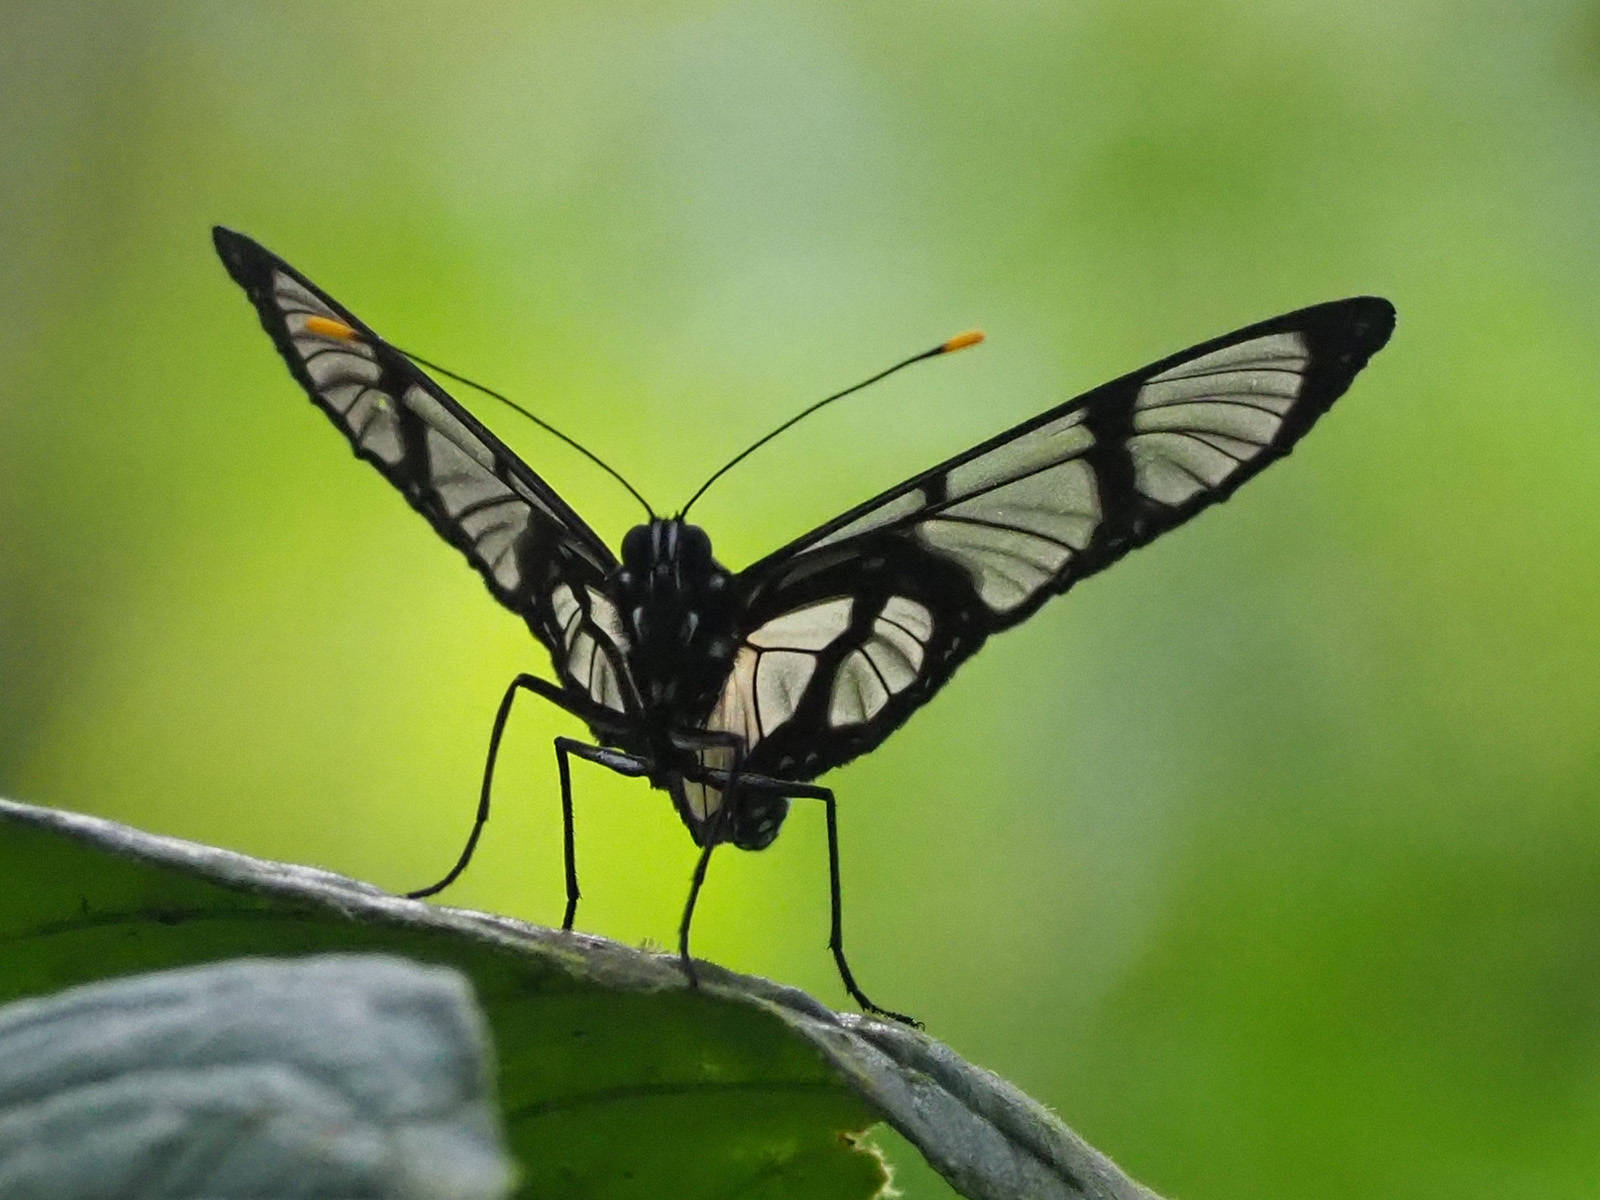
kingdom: Animalia
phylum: Arthropoda
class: Insecta
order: Lepidoptera
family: Nymphalidae
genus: Methona
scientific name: Methona confusa
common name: Confusa tigerwing
